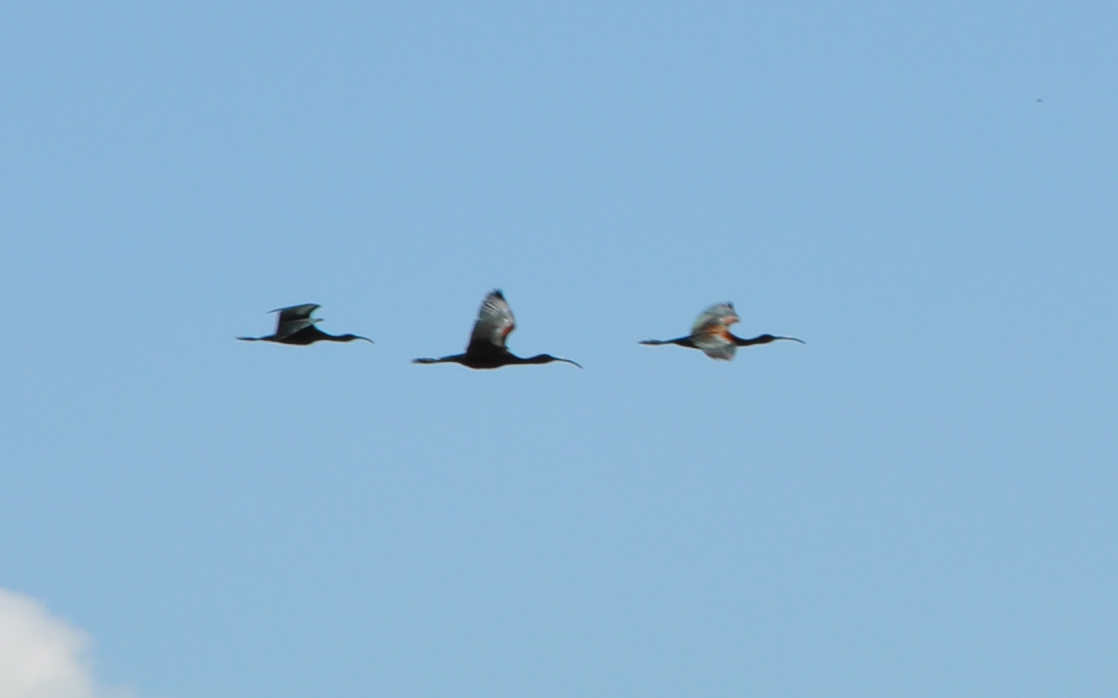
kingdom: Animalia
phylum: Chordata
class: Aves
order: Pelecaniformes
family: Threskiornithidae
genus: Plegadis
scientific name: Plegadis chihi
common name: White-faced ibis
